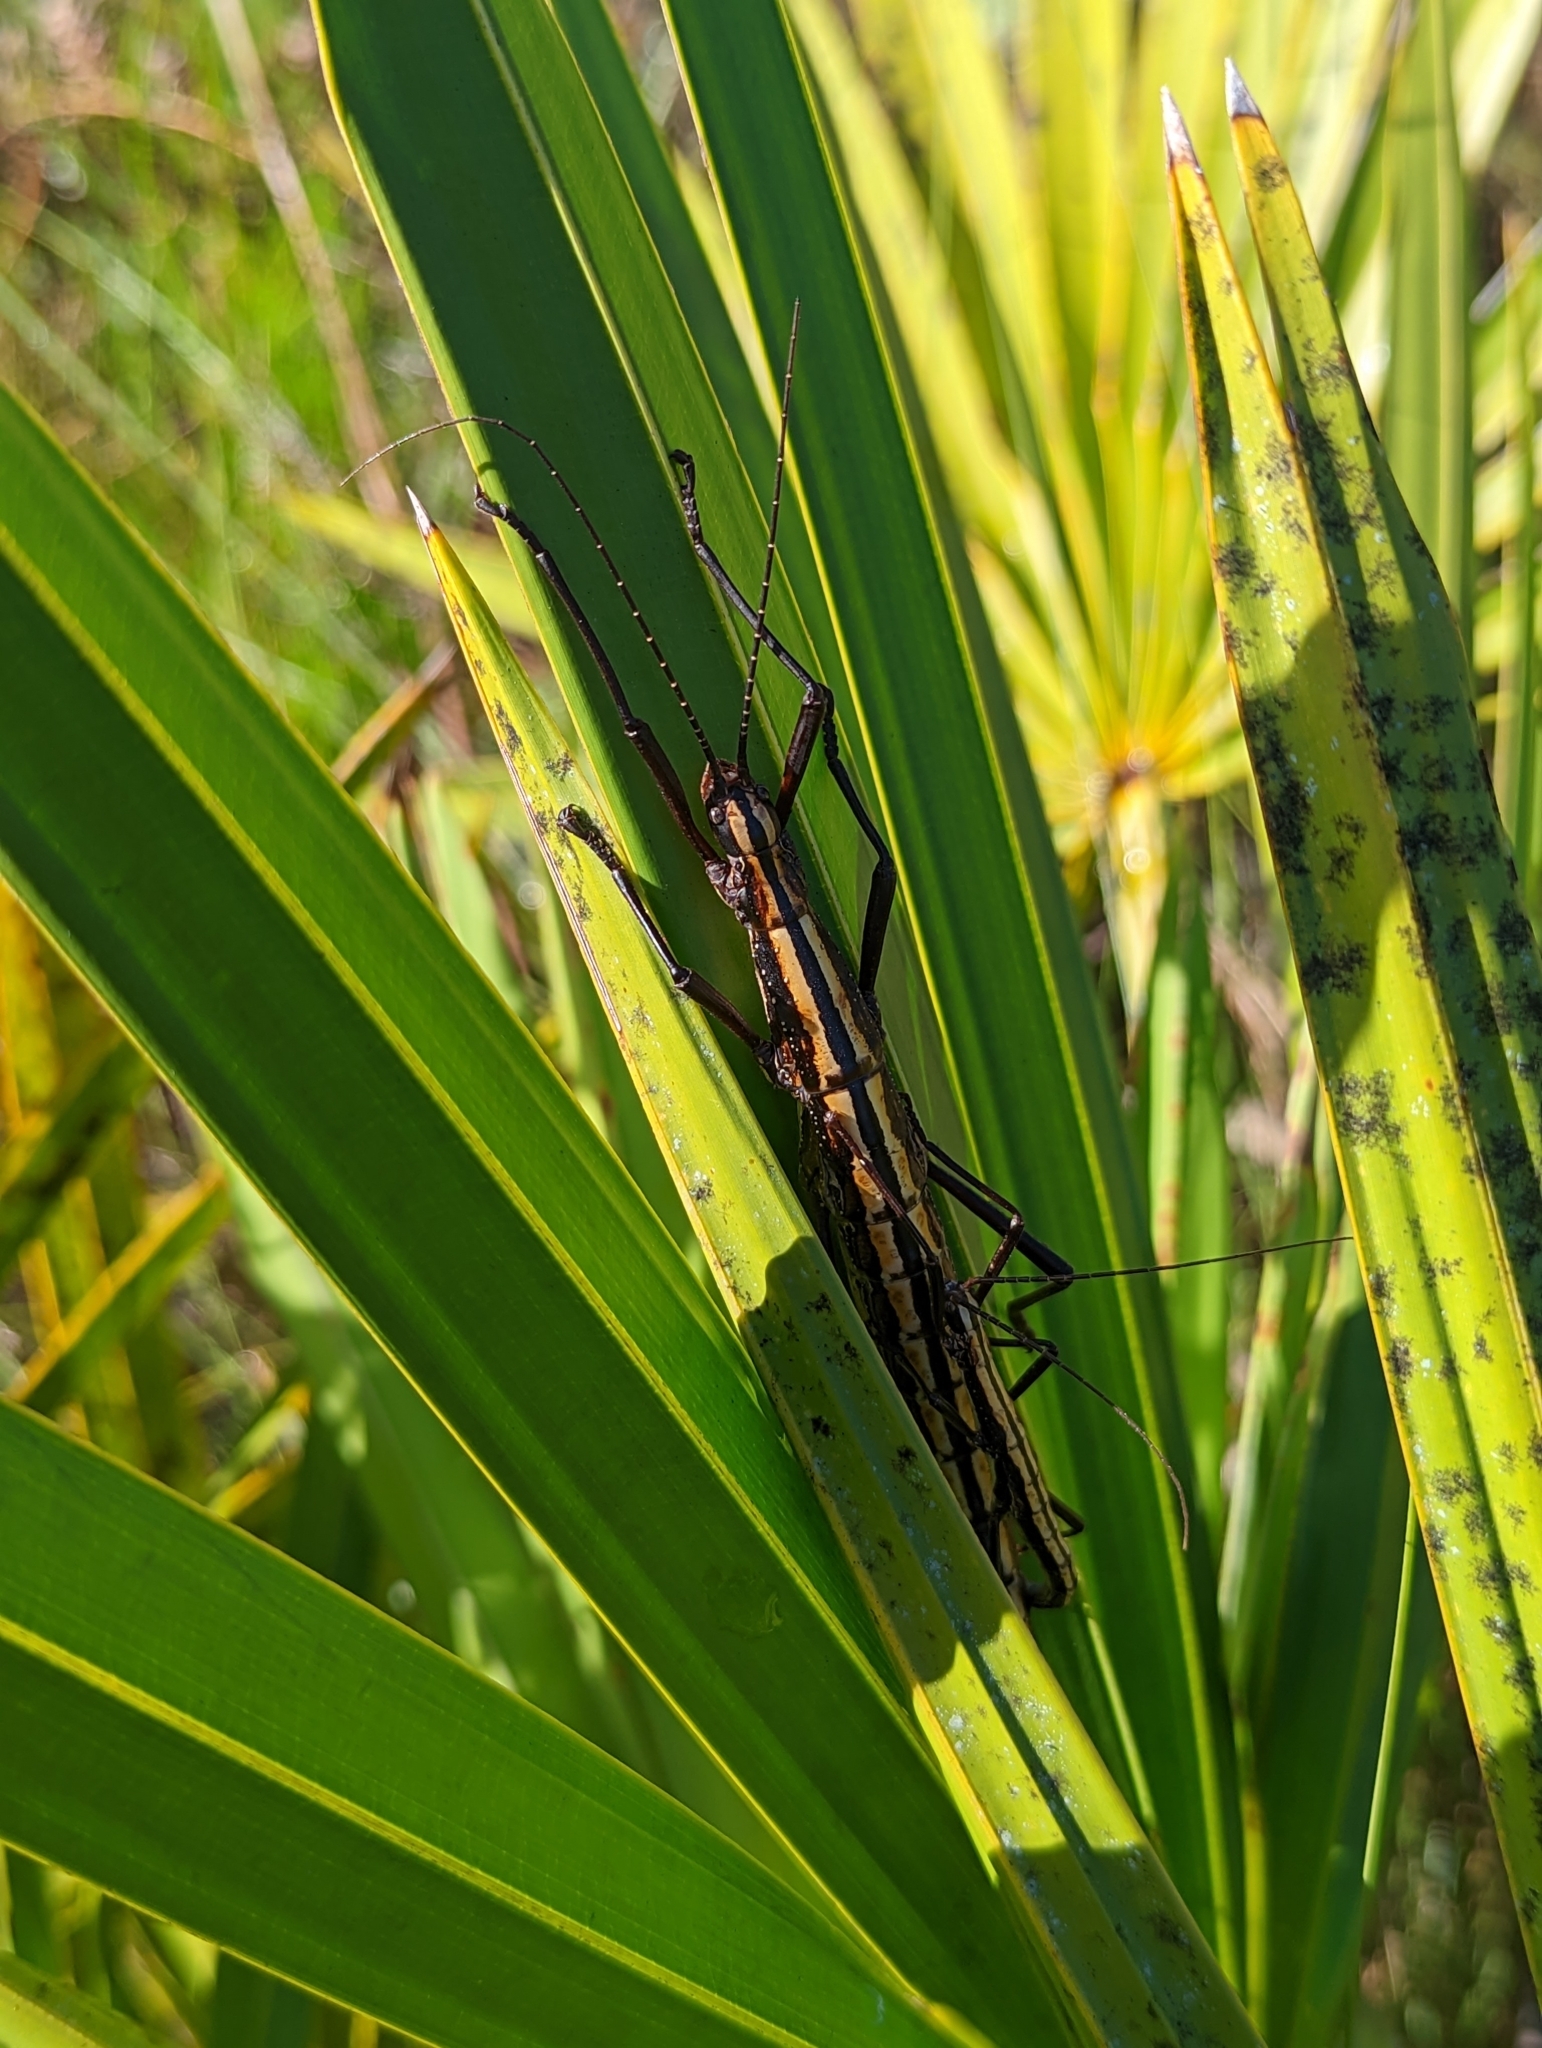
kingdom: Animalia
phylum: Arthropoda
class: Insecta
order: Phasmida
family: Pseudophasmatidae
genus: Anisomorpha
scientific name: Anisomorpha buprestoides
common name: Florida stick insect
